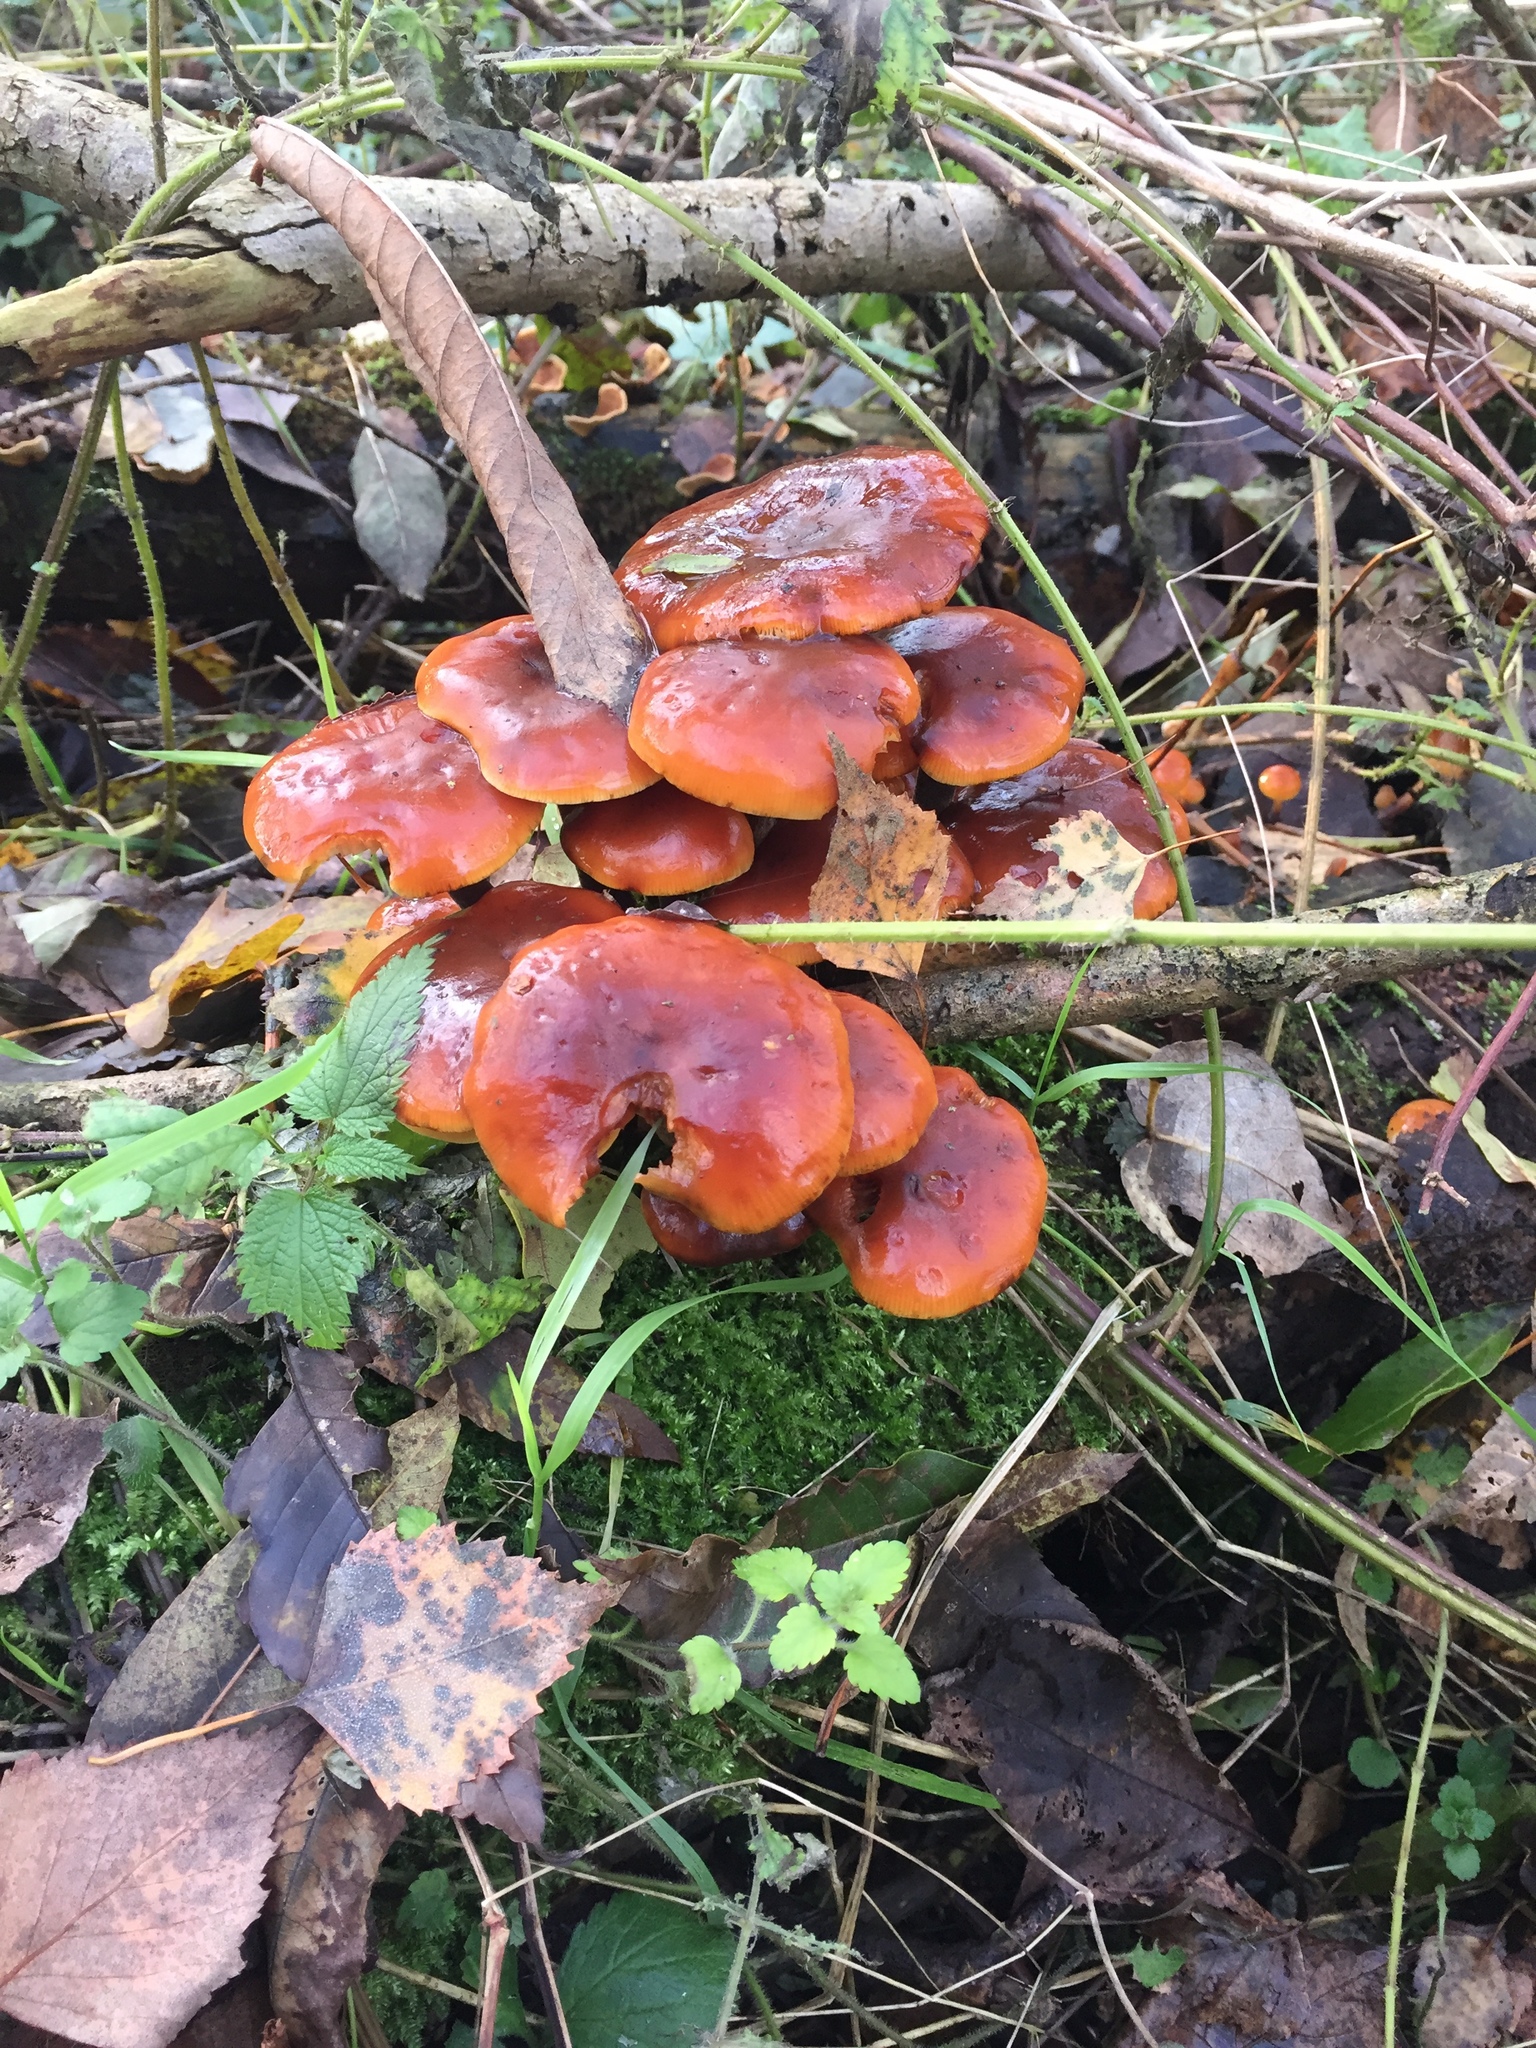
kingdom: Fungi
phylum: Basidiomycota
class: Agaricomycetes
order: Agaricales
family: Physalacriaceae
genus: Flammulina
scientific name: Flammulina
